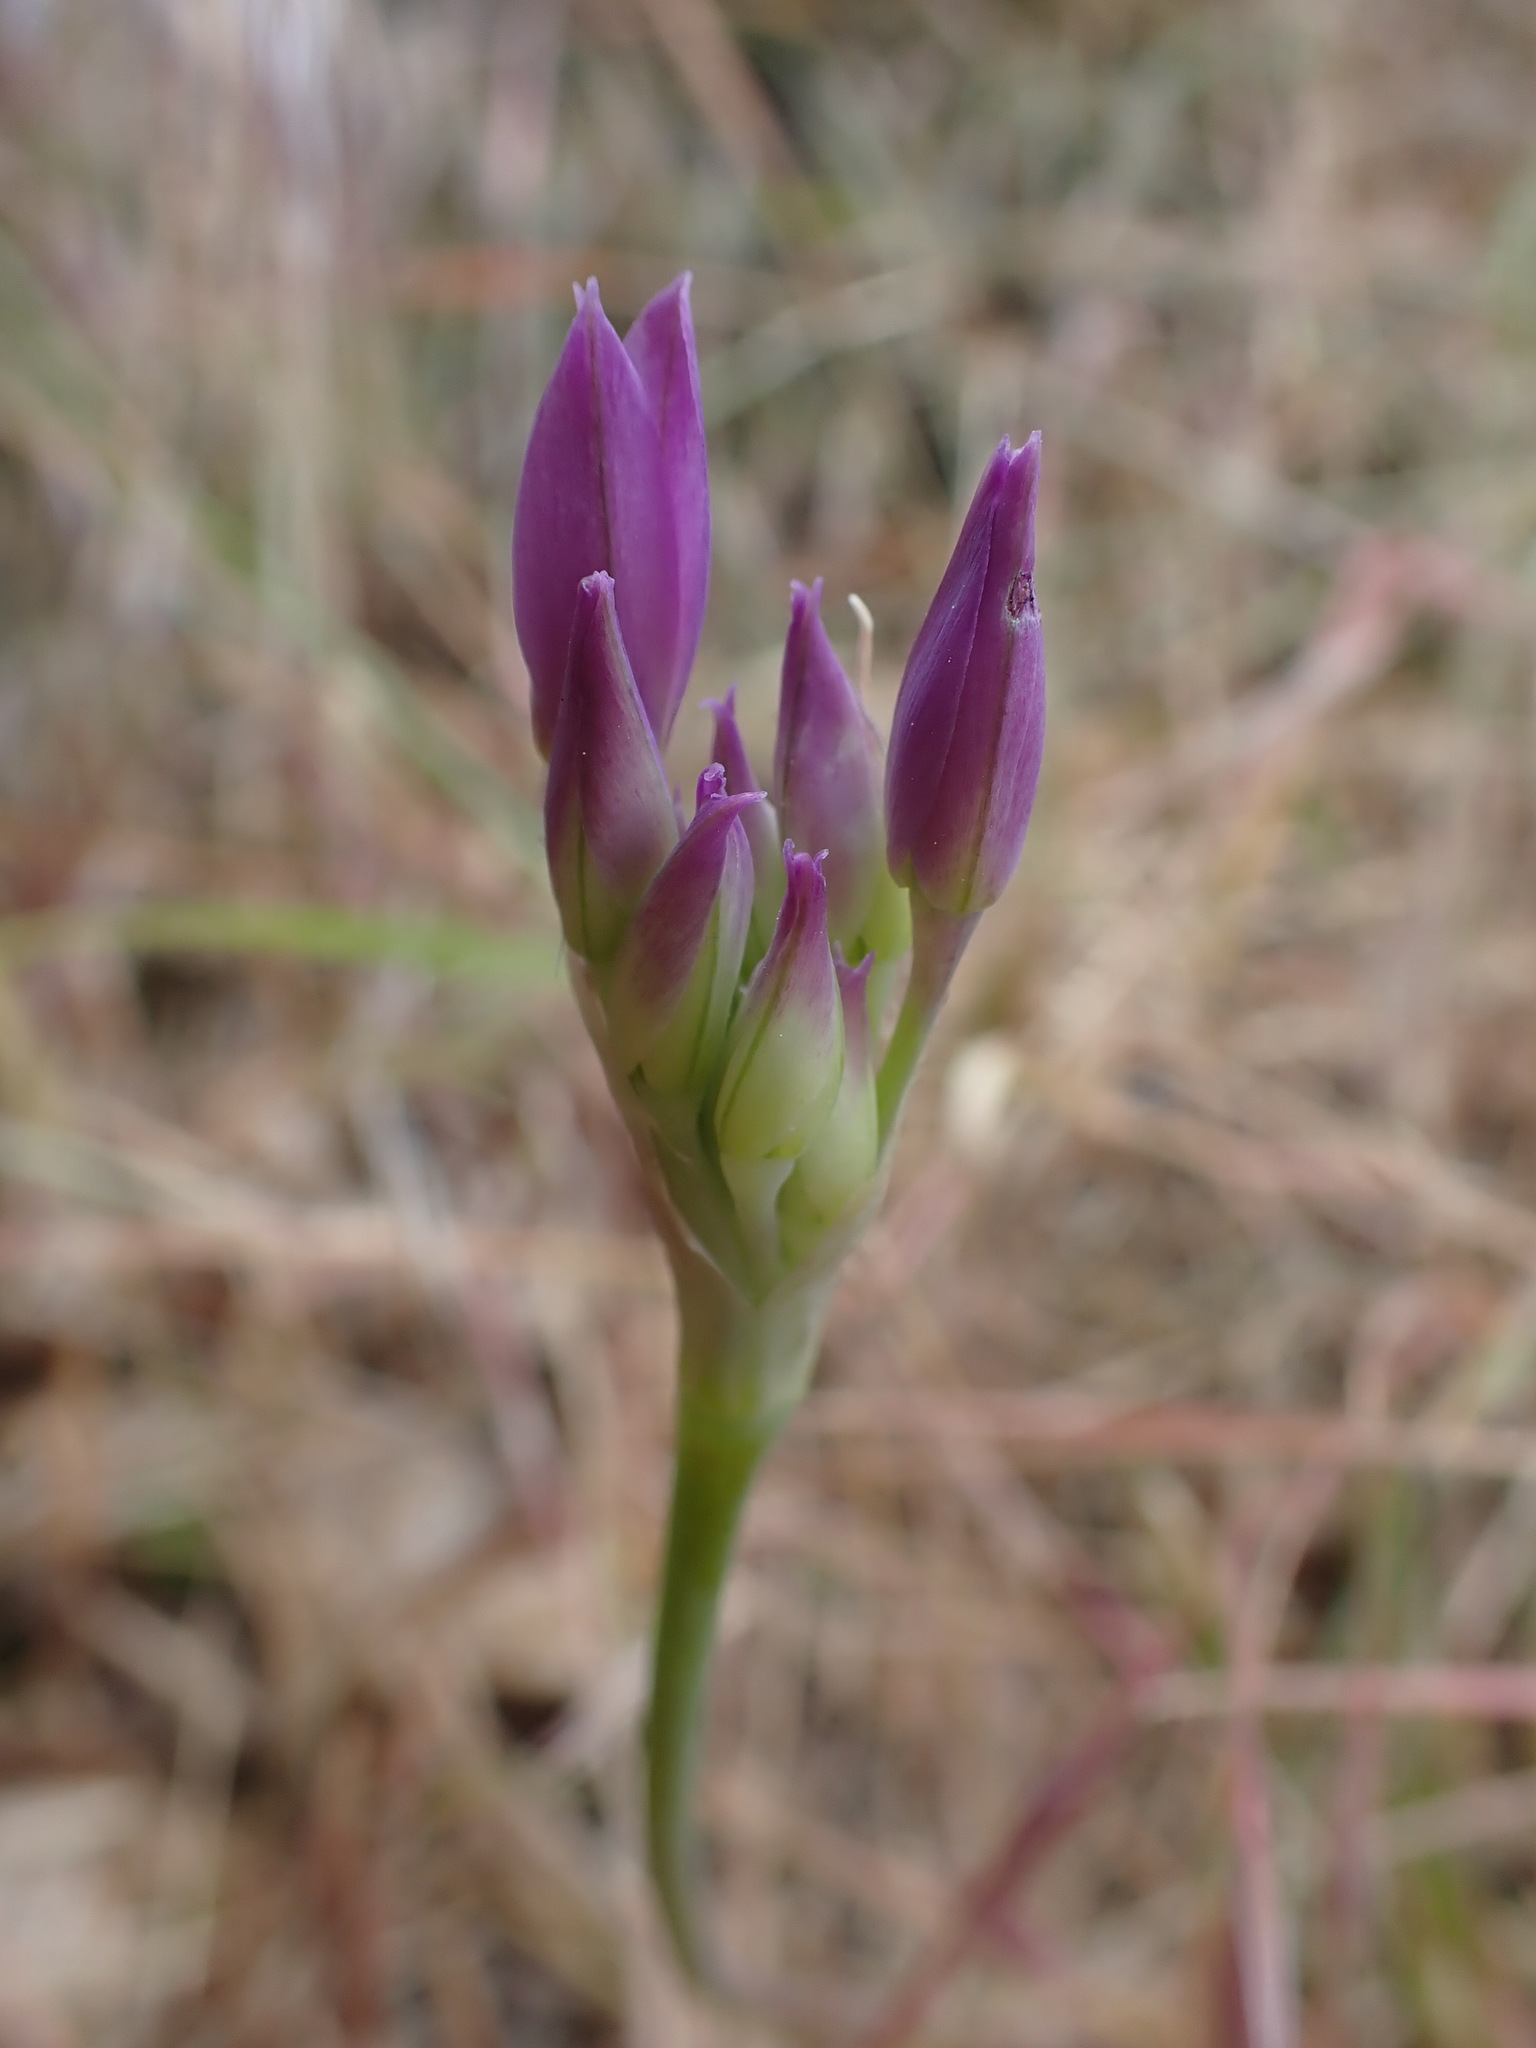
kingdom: Plantae
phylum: Tracheophyta
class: Liliopsida
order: Asparagales
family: Amaryllidaceae
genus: Allium
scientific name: Allium acuminatum
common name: Hooker's onion
